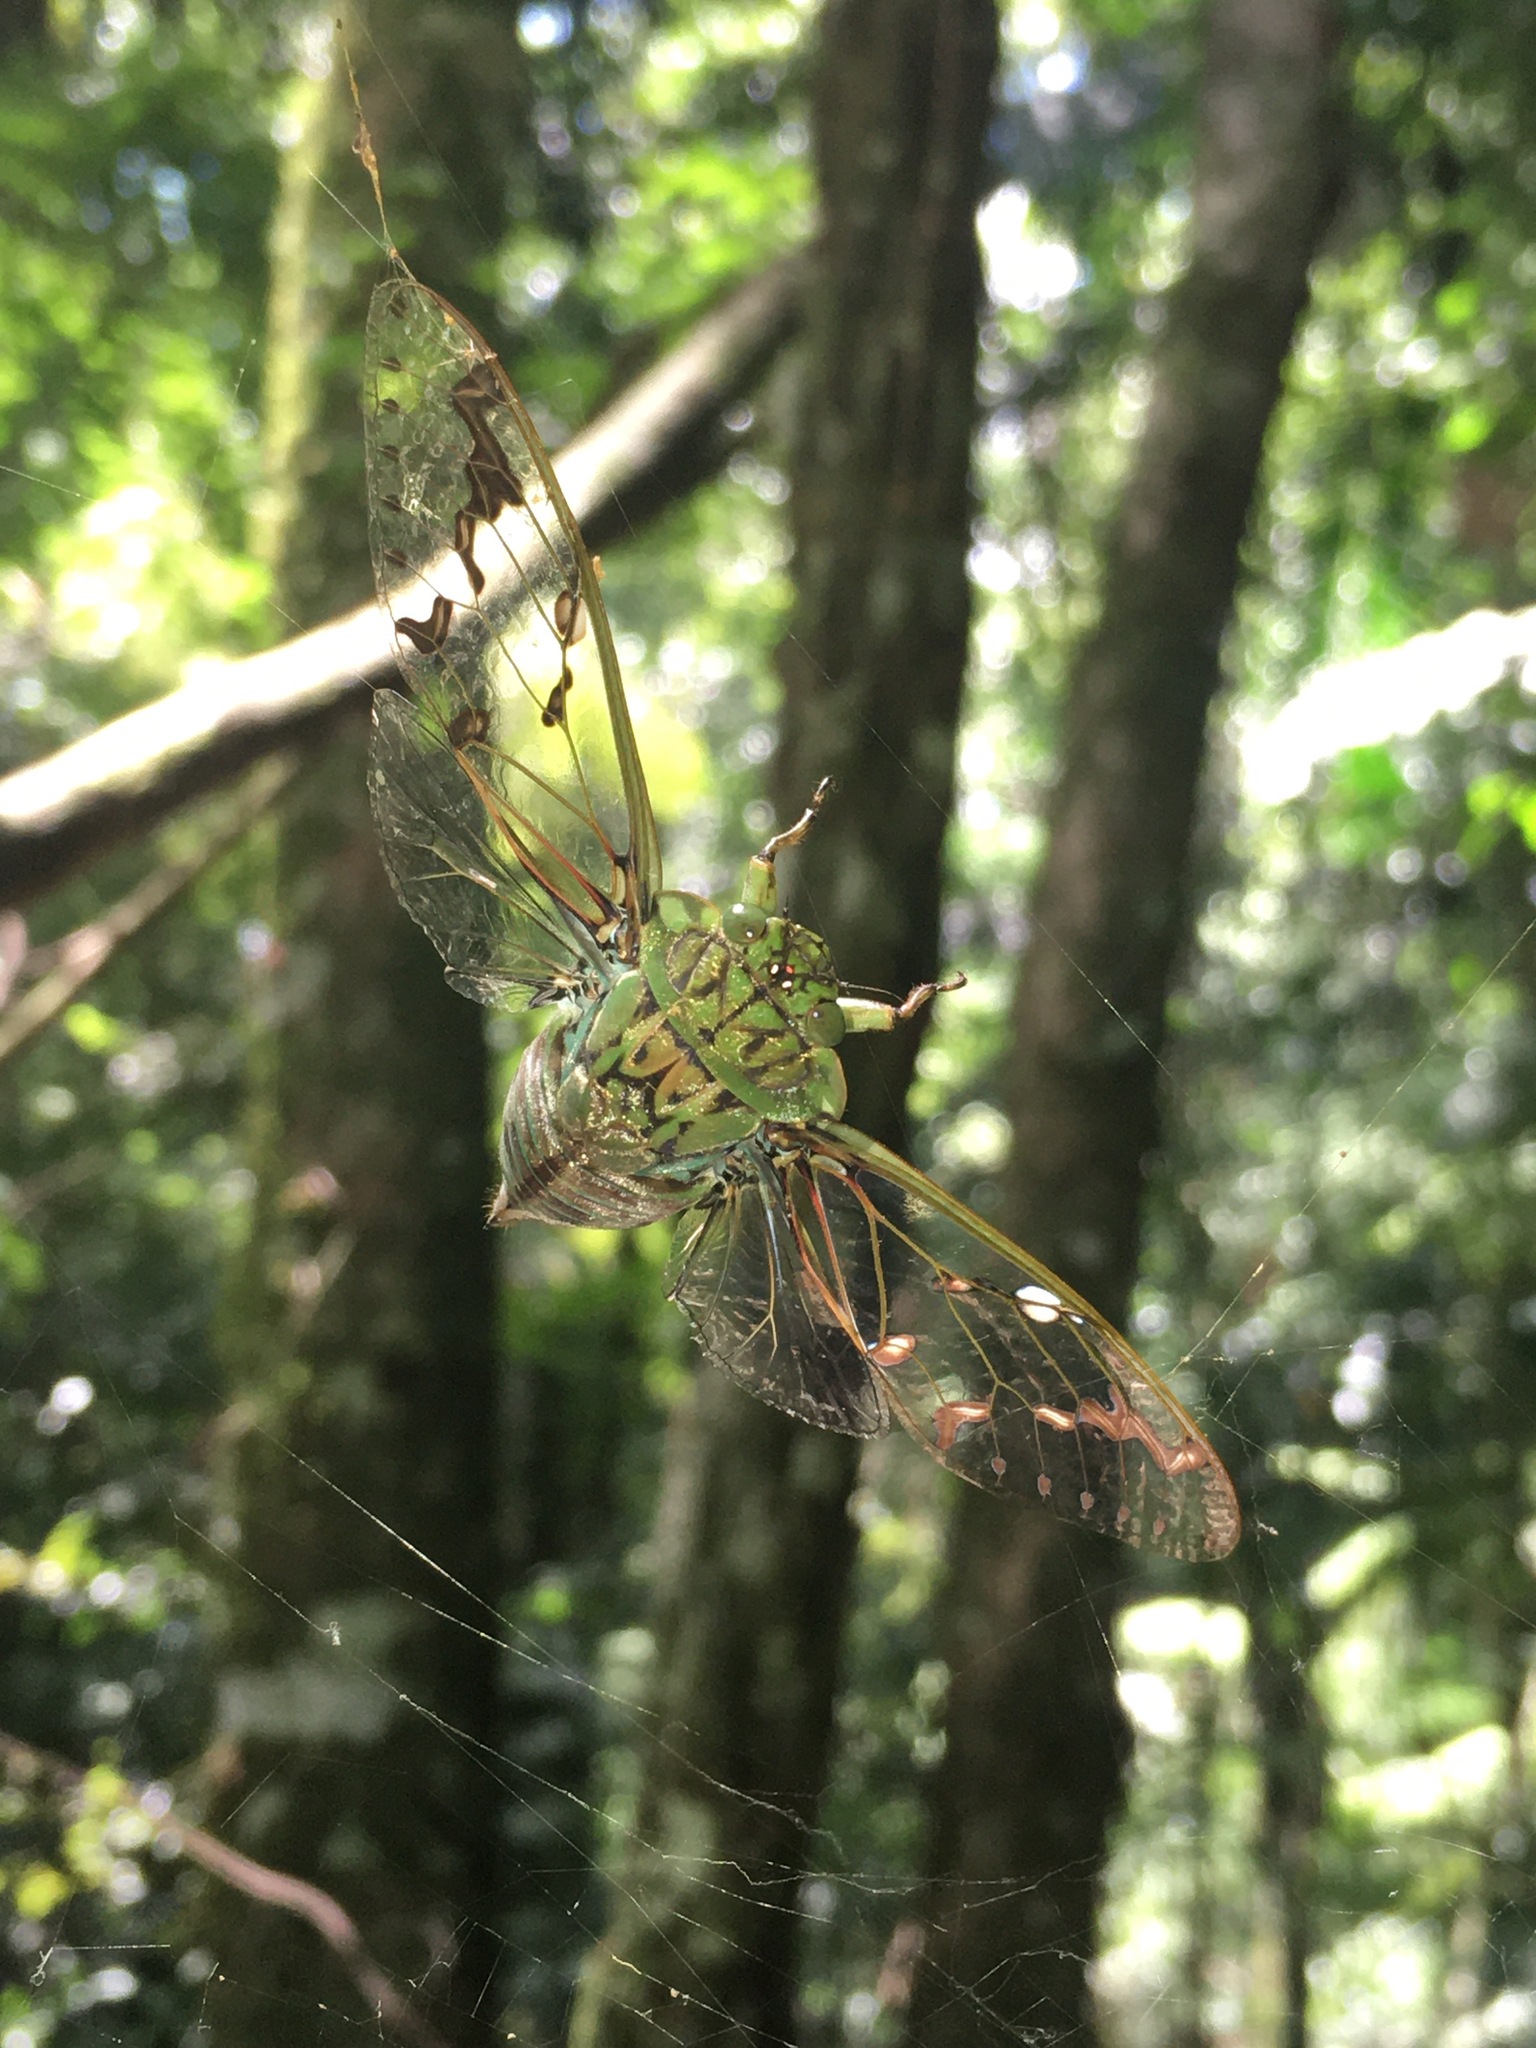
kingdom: Animalia
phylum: Arthropoda
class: Insecta
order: Hemiptera
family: Cicadidae
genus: Zammara
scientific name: Zammara tympanum
